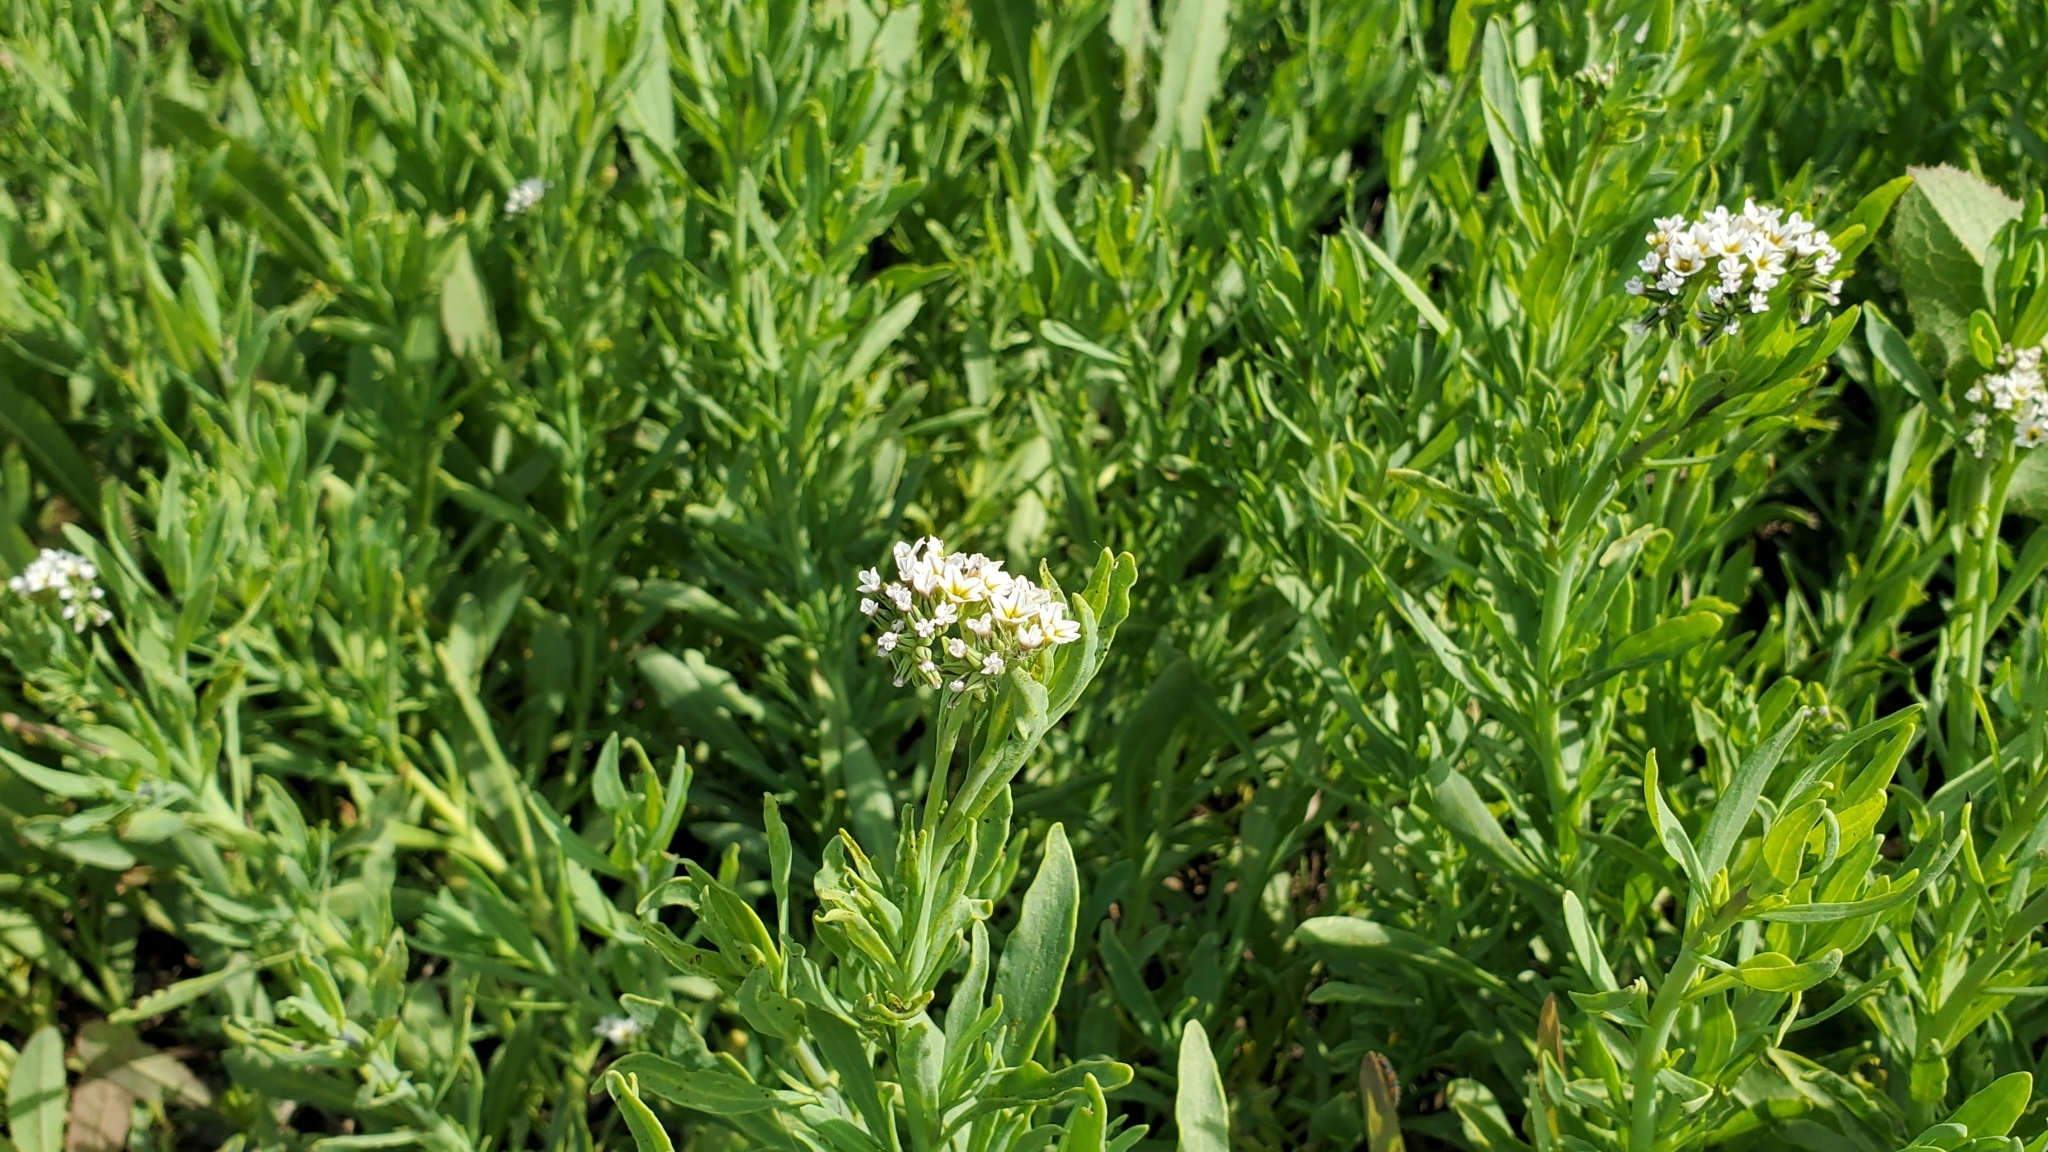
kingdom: Plantae
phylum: Tracheophyta
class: Magnoliopsida
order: Boraginales
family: Heliotropiaceae
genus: Heliotropium
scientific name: Heliotropium curassavicum
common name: Seaside heliotrope
